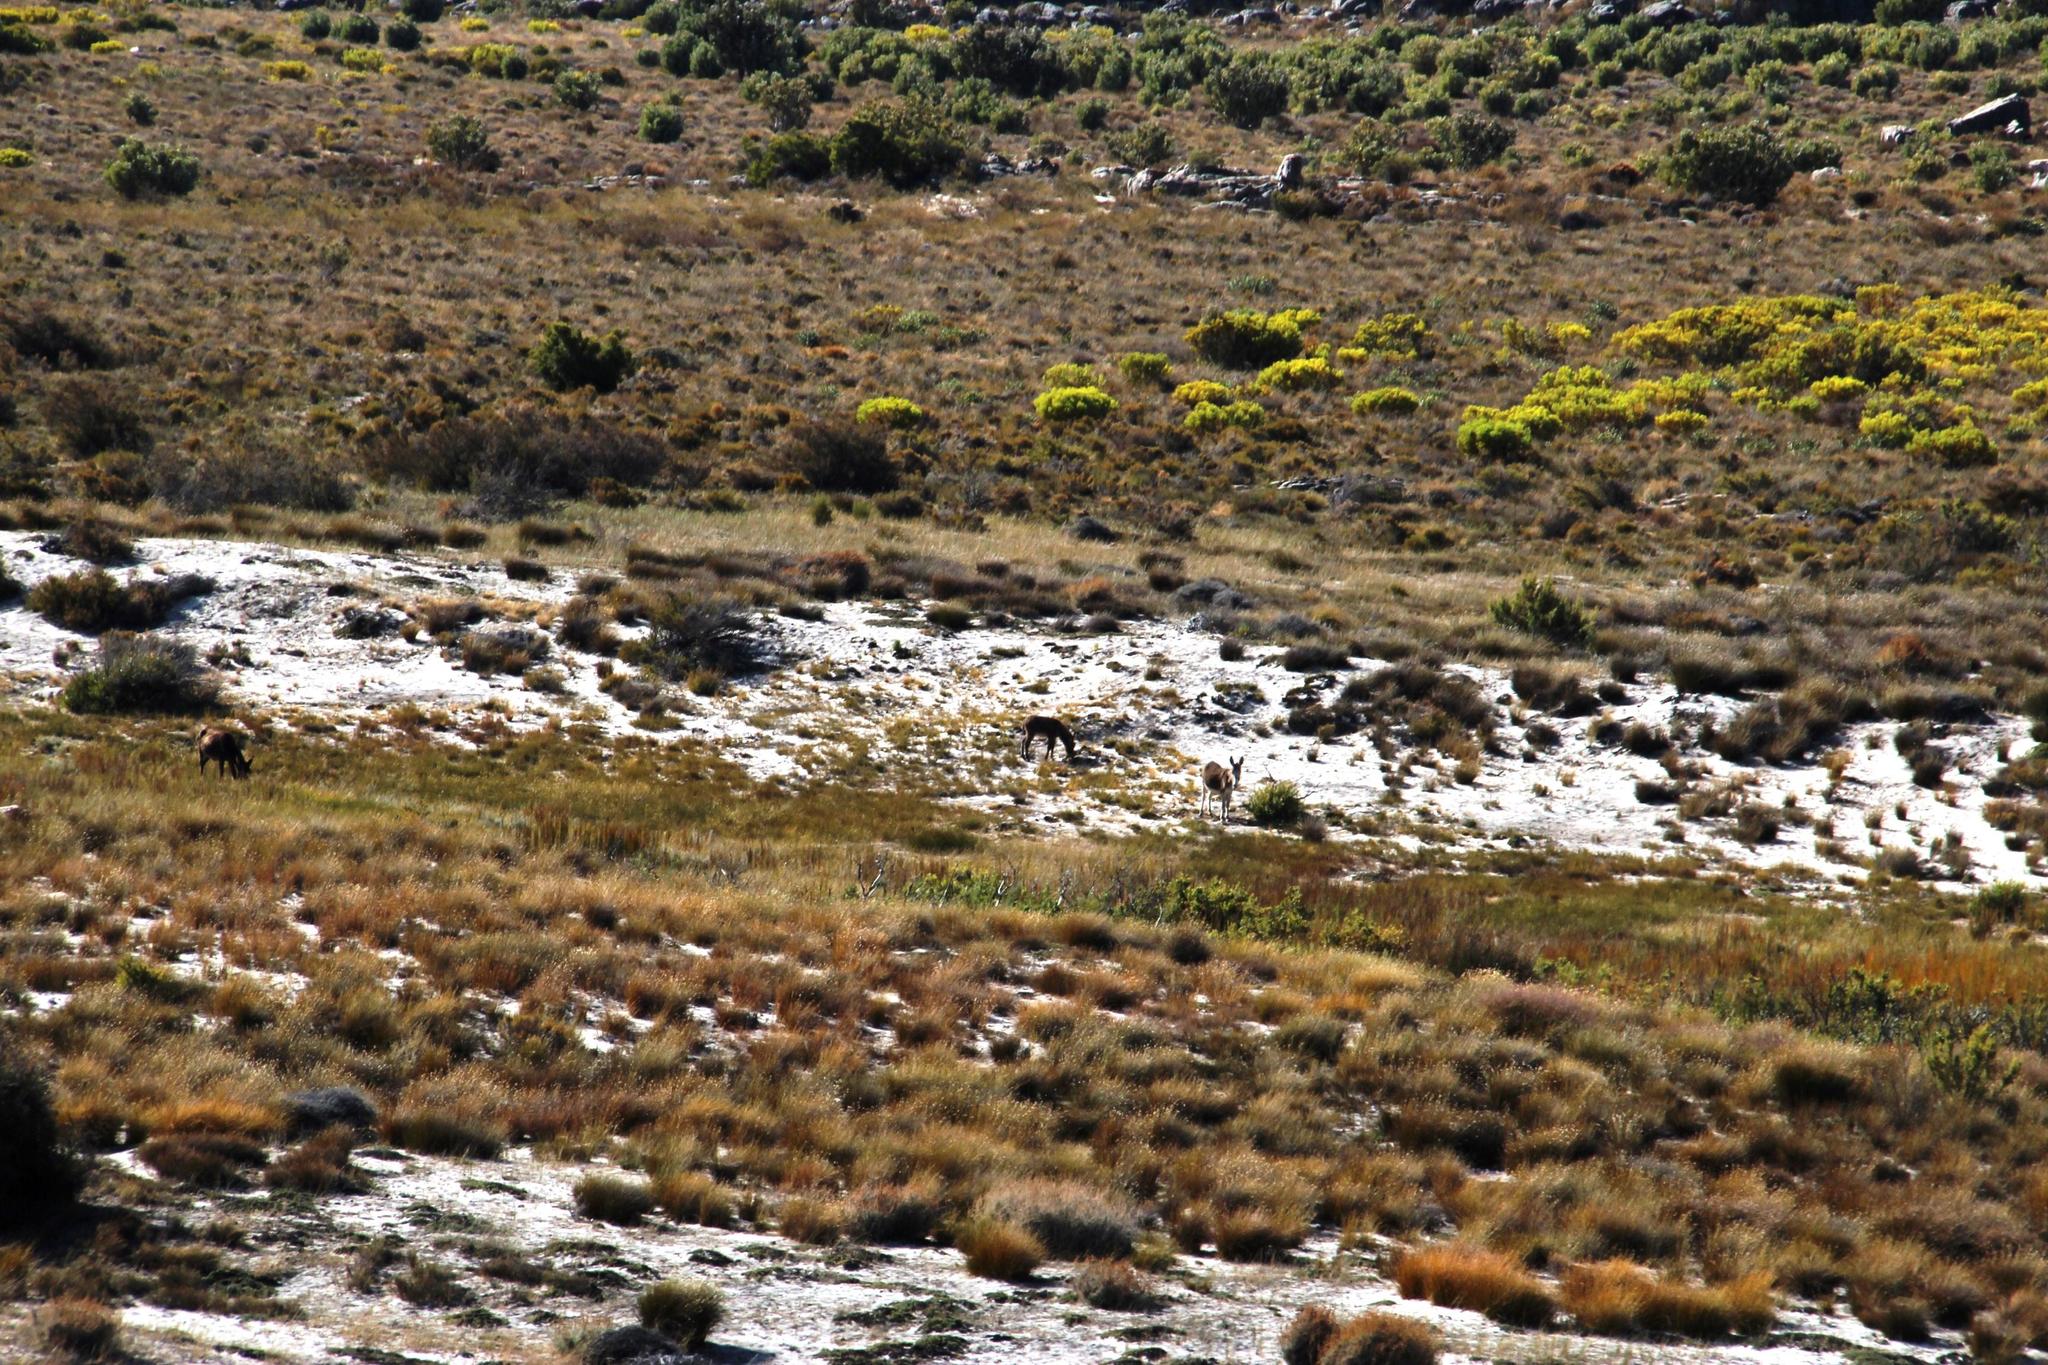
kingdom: Animalia
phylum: Chordata
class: Mammalia
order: Perissodactyla
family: Equidae
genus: Equus
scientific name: Equus asinus
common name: Ass
